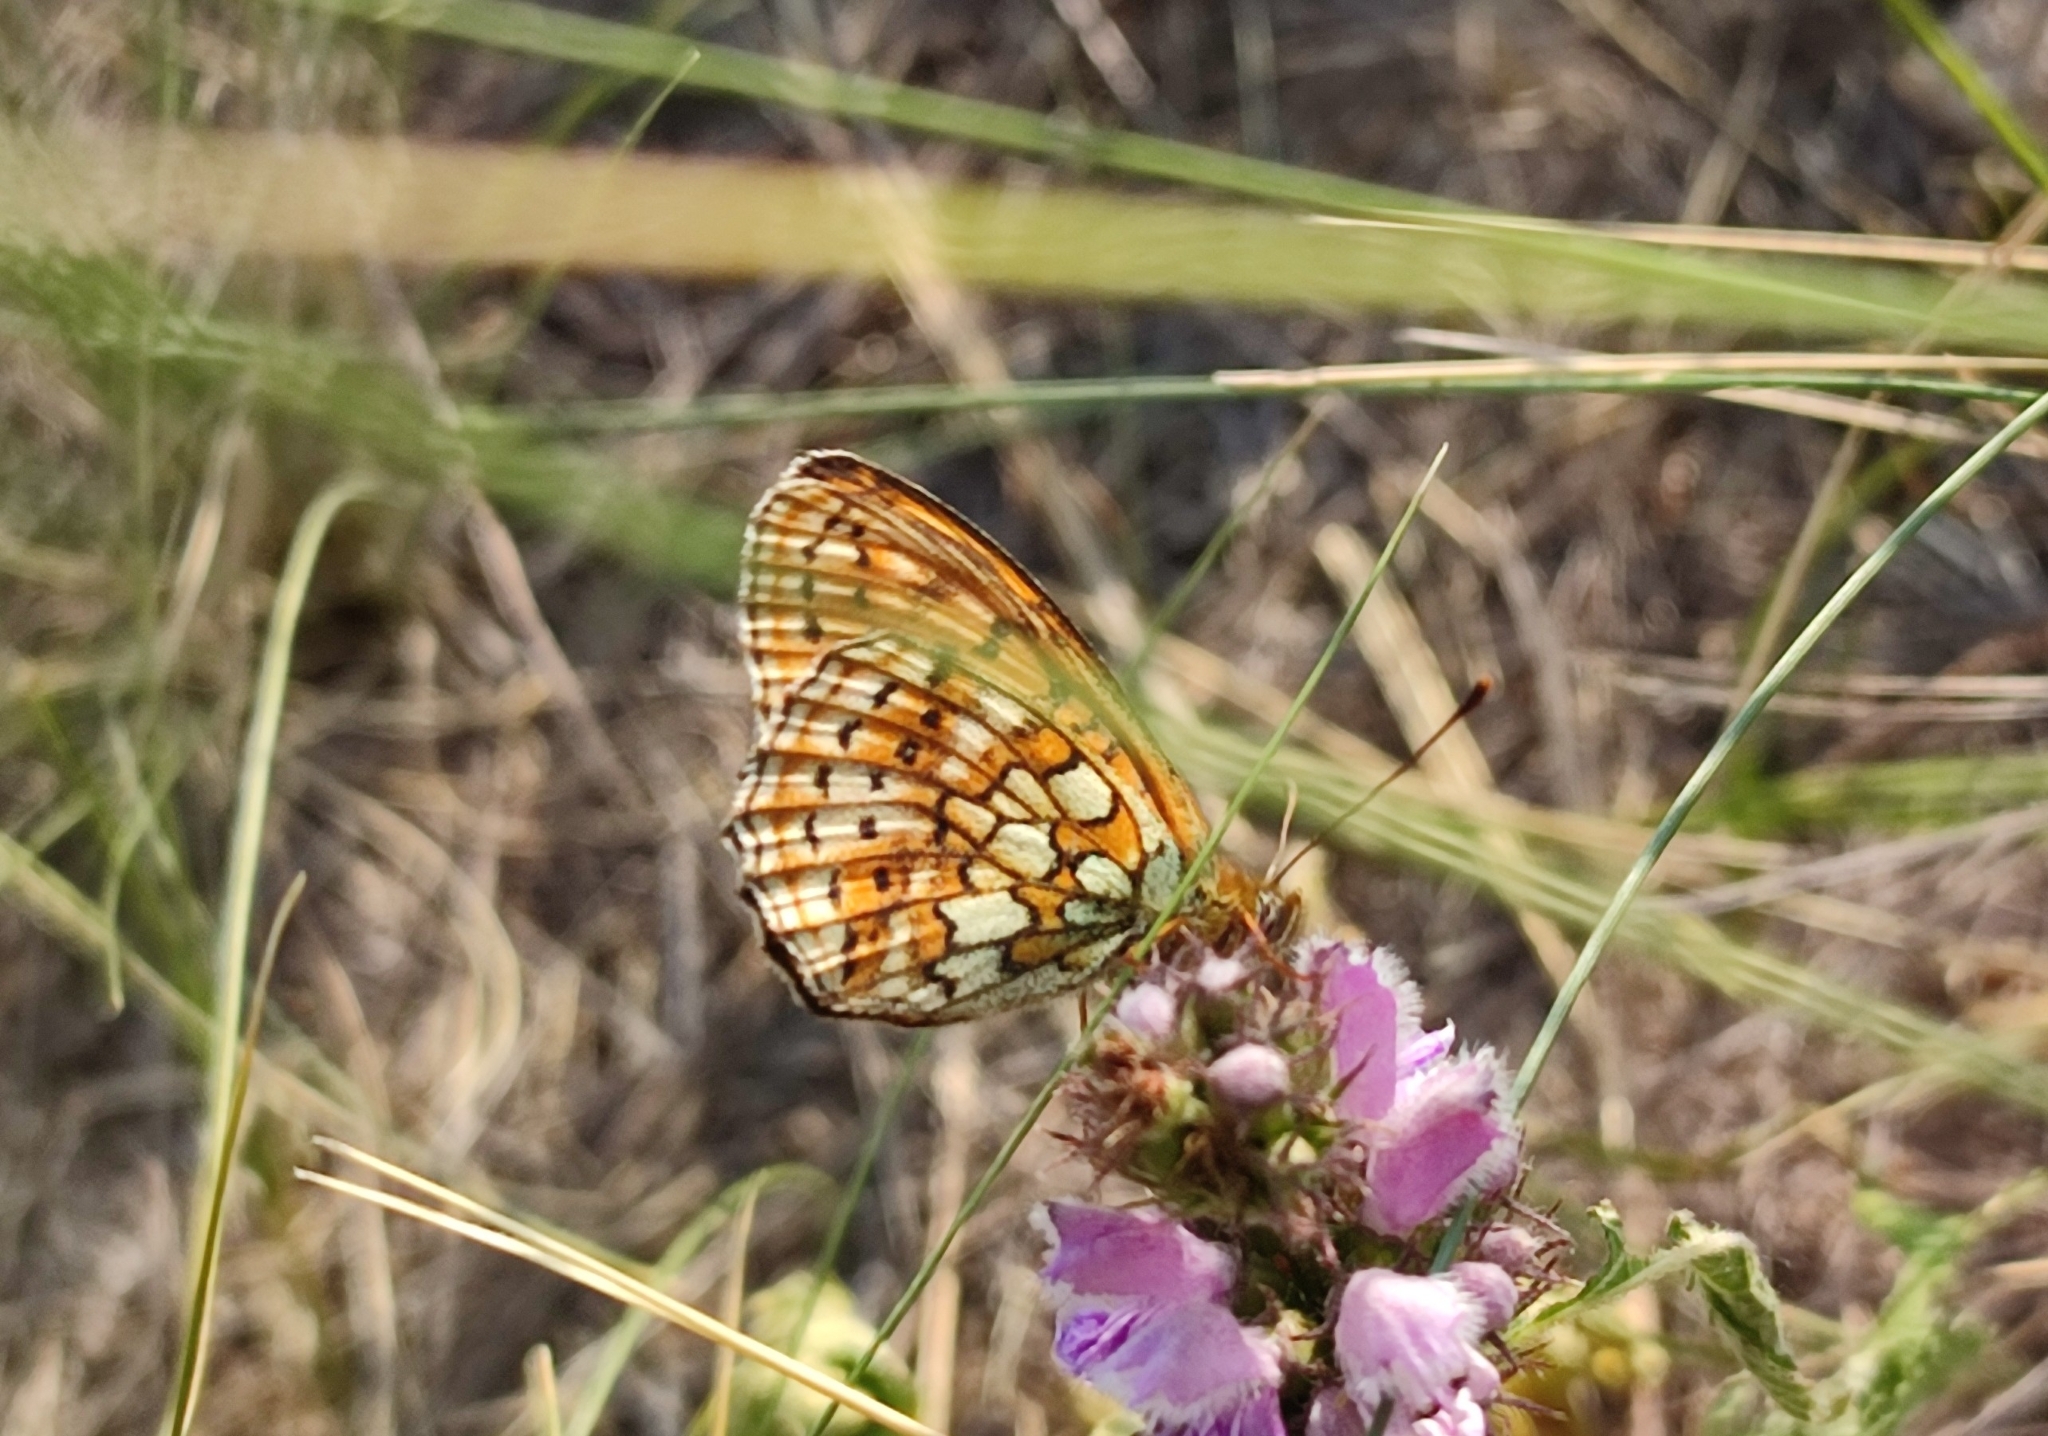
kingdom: Animalia
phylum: Arthropoda
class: Insecta
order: Lepidoptera
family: Nymphalidae
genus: Brenthis
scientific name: Brenthis hecate
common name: Twin-spot fritillary
